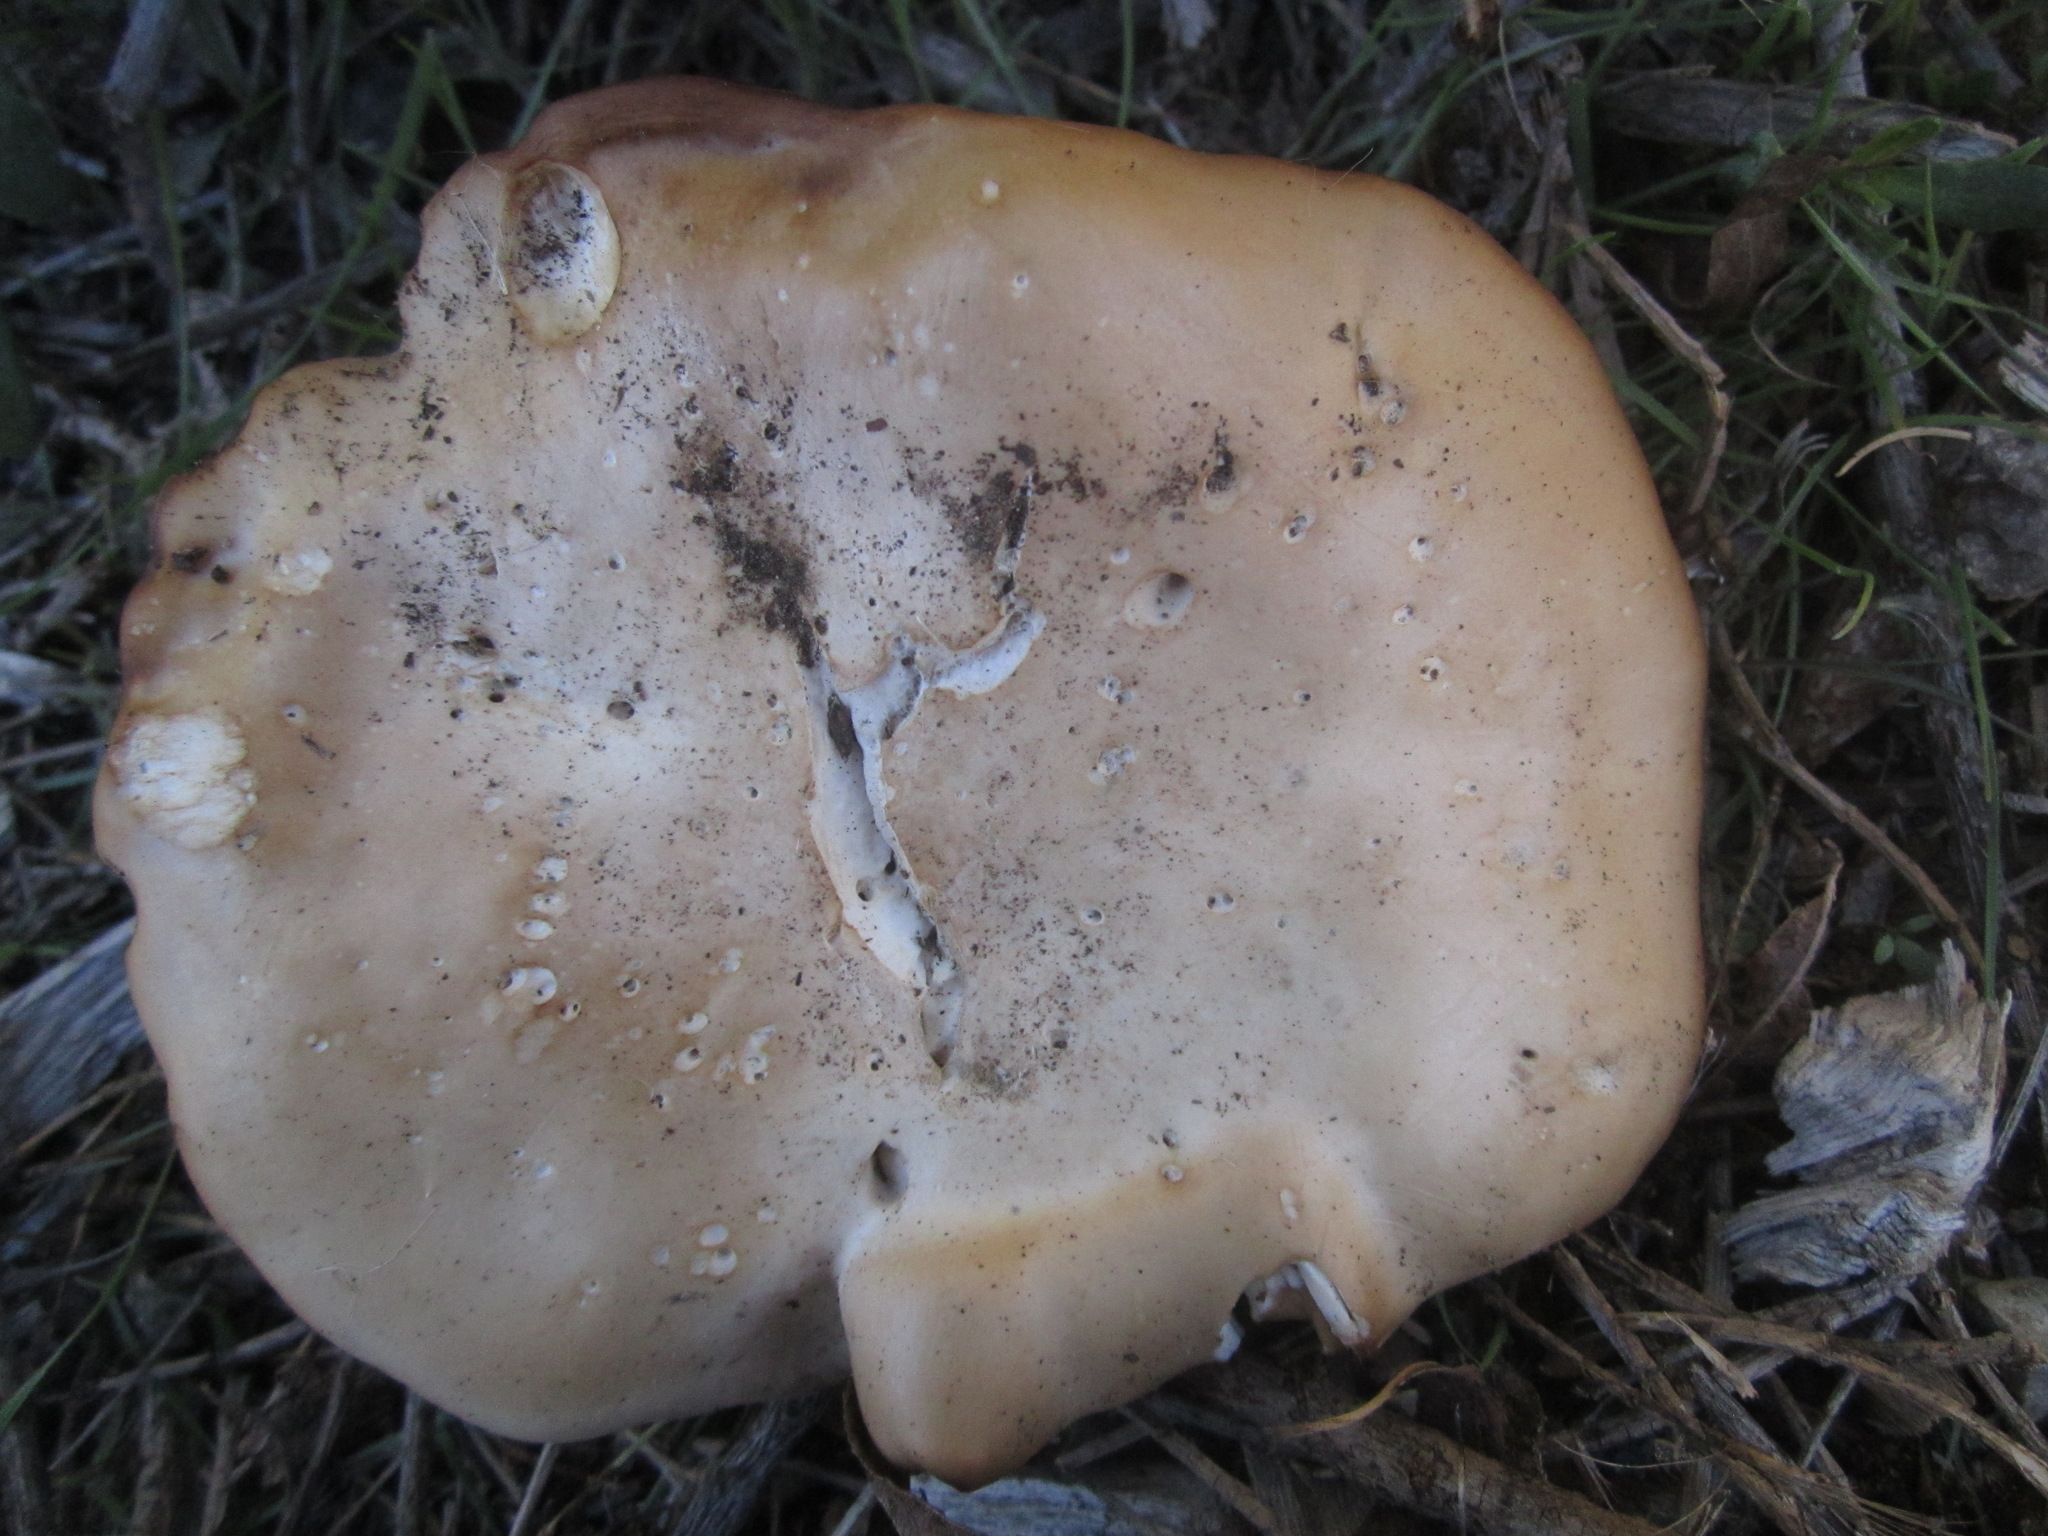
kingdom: Fungi
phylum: Basidiomycota
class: Agaricomycetes
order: Agaricales
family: Tricholomataceae
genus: Collybia
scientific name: Collybia
